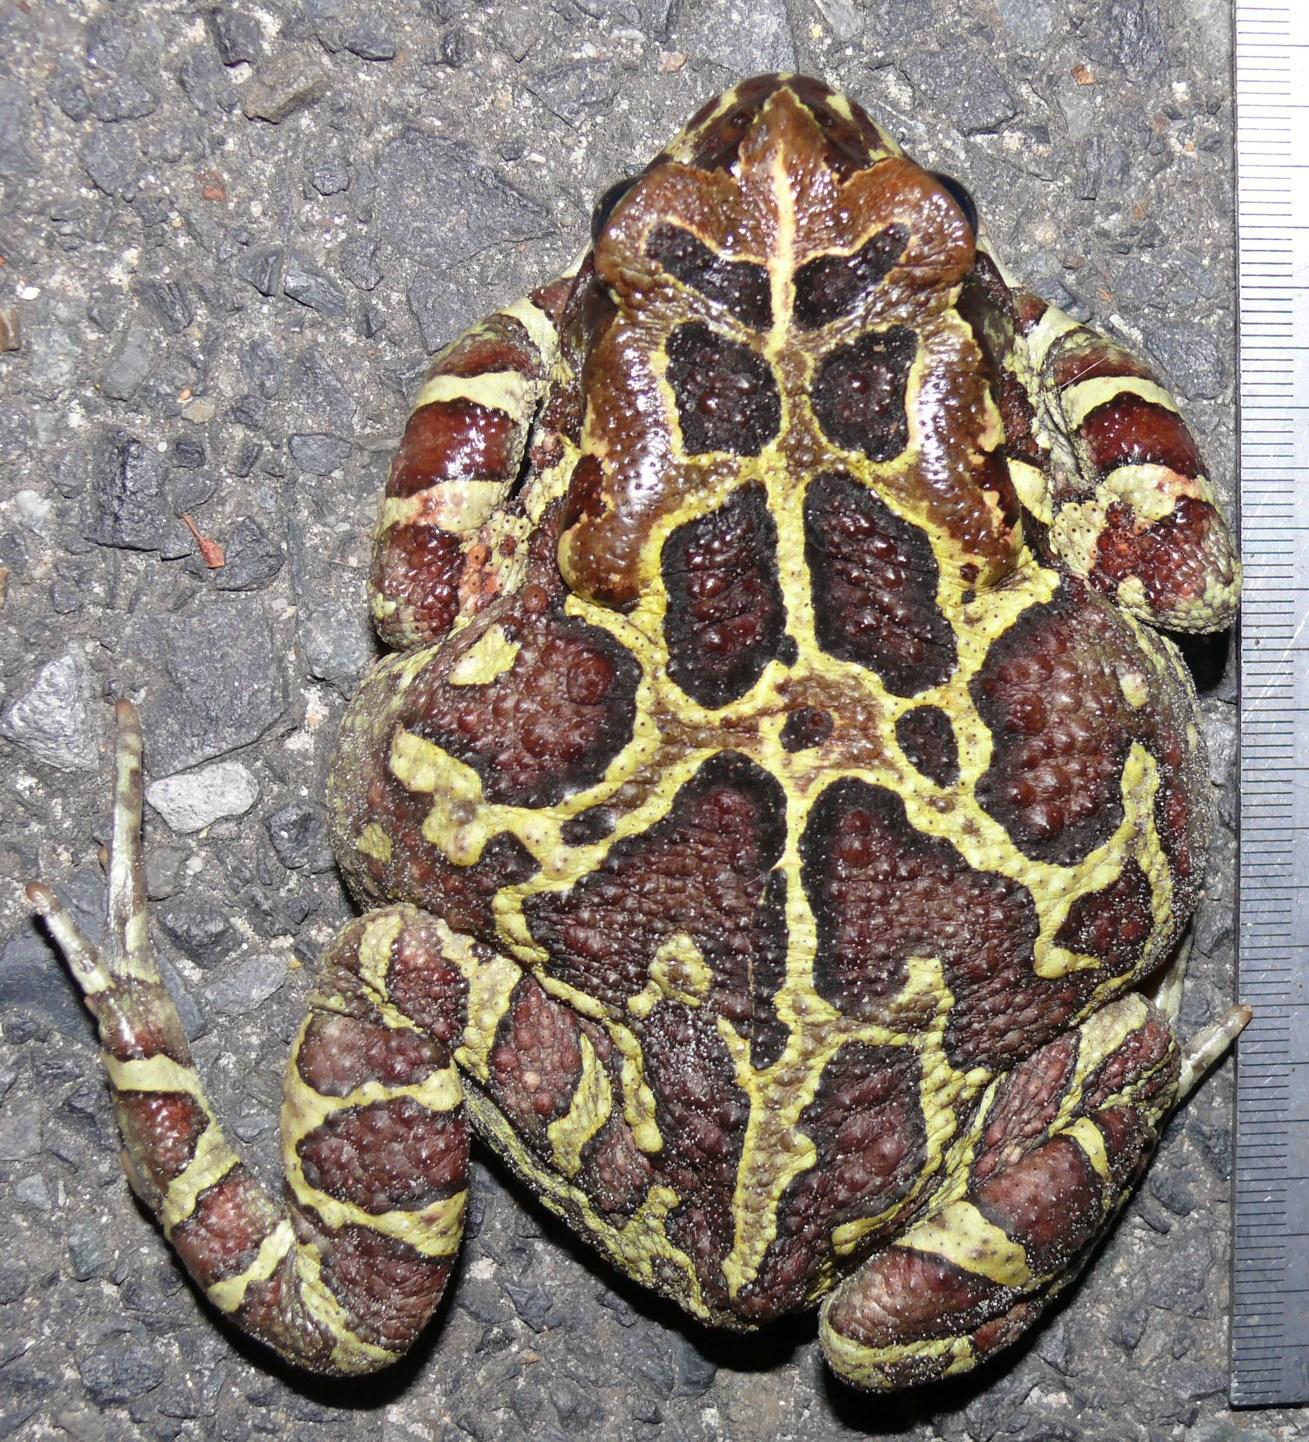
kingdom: Animalia
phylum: Chordata
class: Amphibia
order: Anura
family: Bufonidae
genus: Sclerophrys
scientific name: Sclerophrys pantherina
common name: Panther toad
